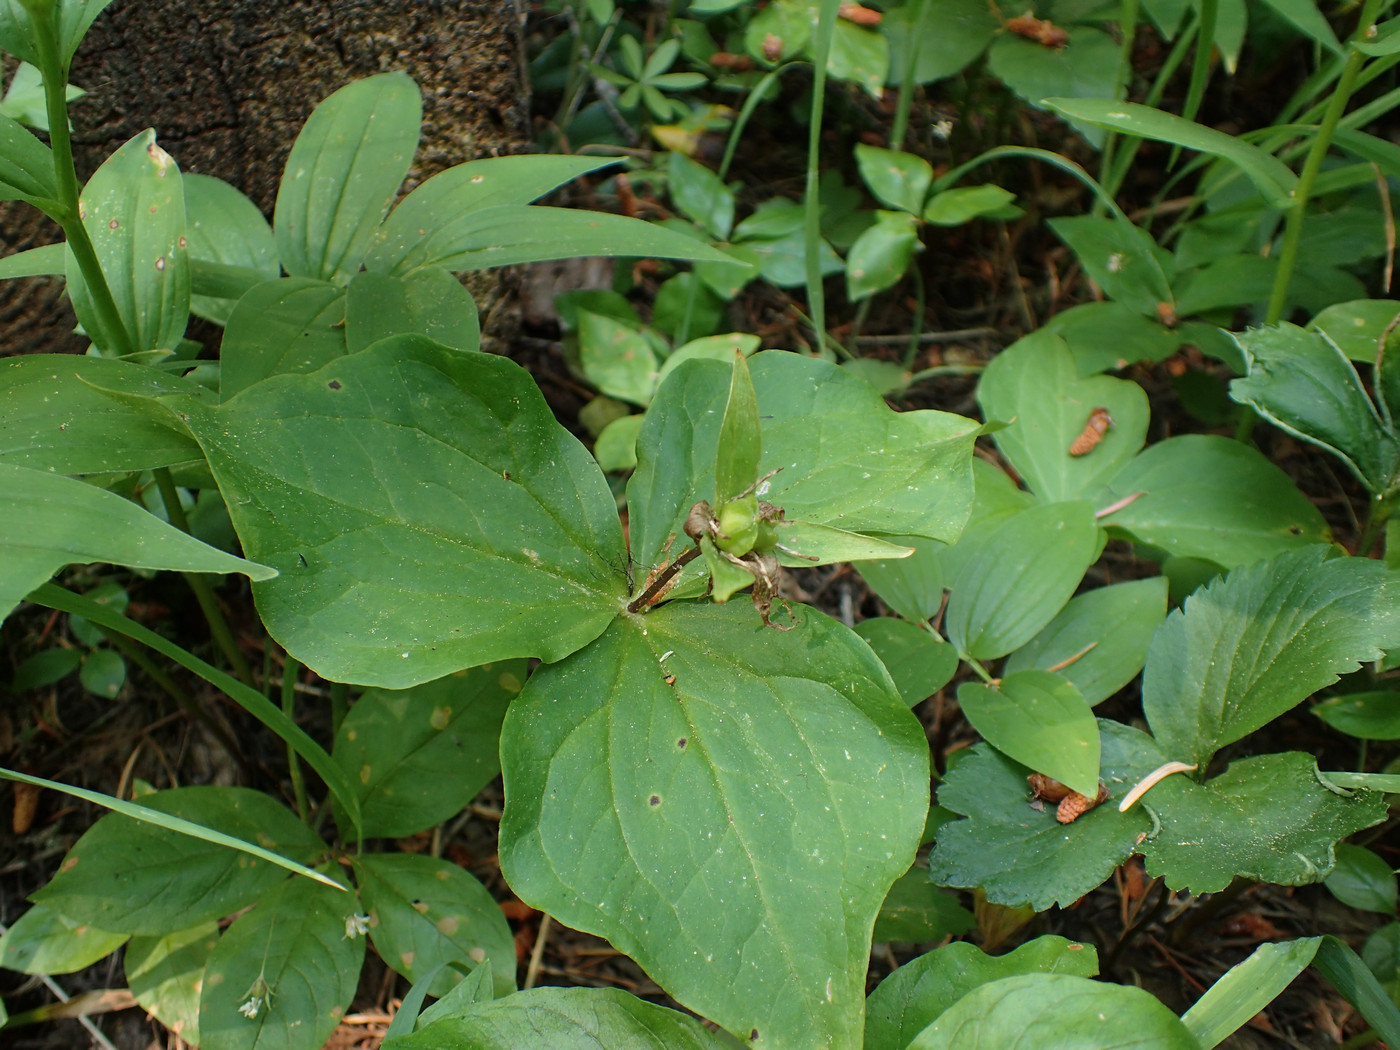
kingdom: Plantae
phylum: Tracheophyta
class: Liliopsida
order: Liliales
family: Melanthiaceae
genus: Trillium
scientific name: Trillium ovatum
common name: Pacific trillium
